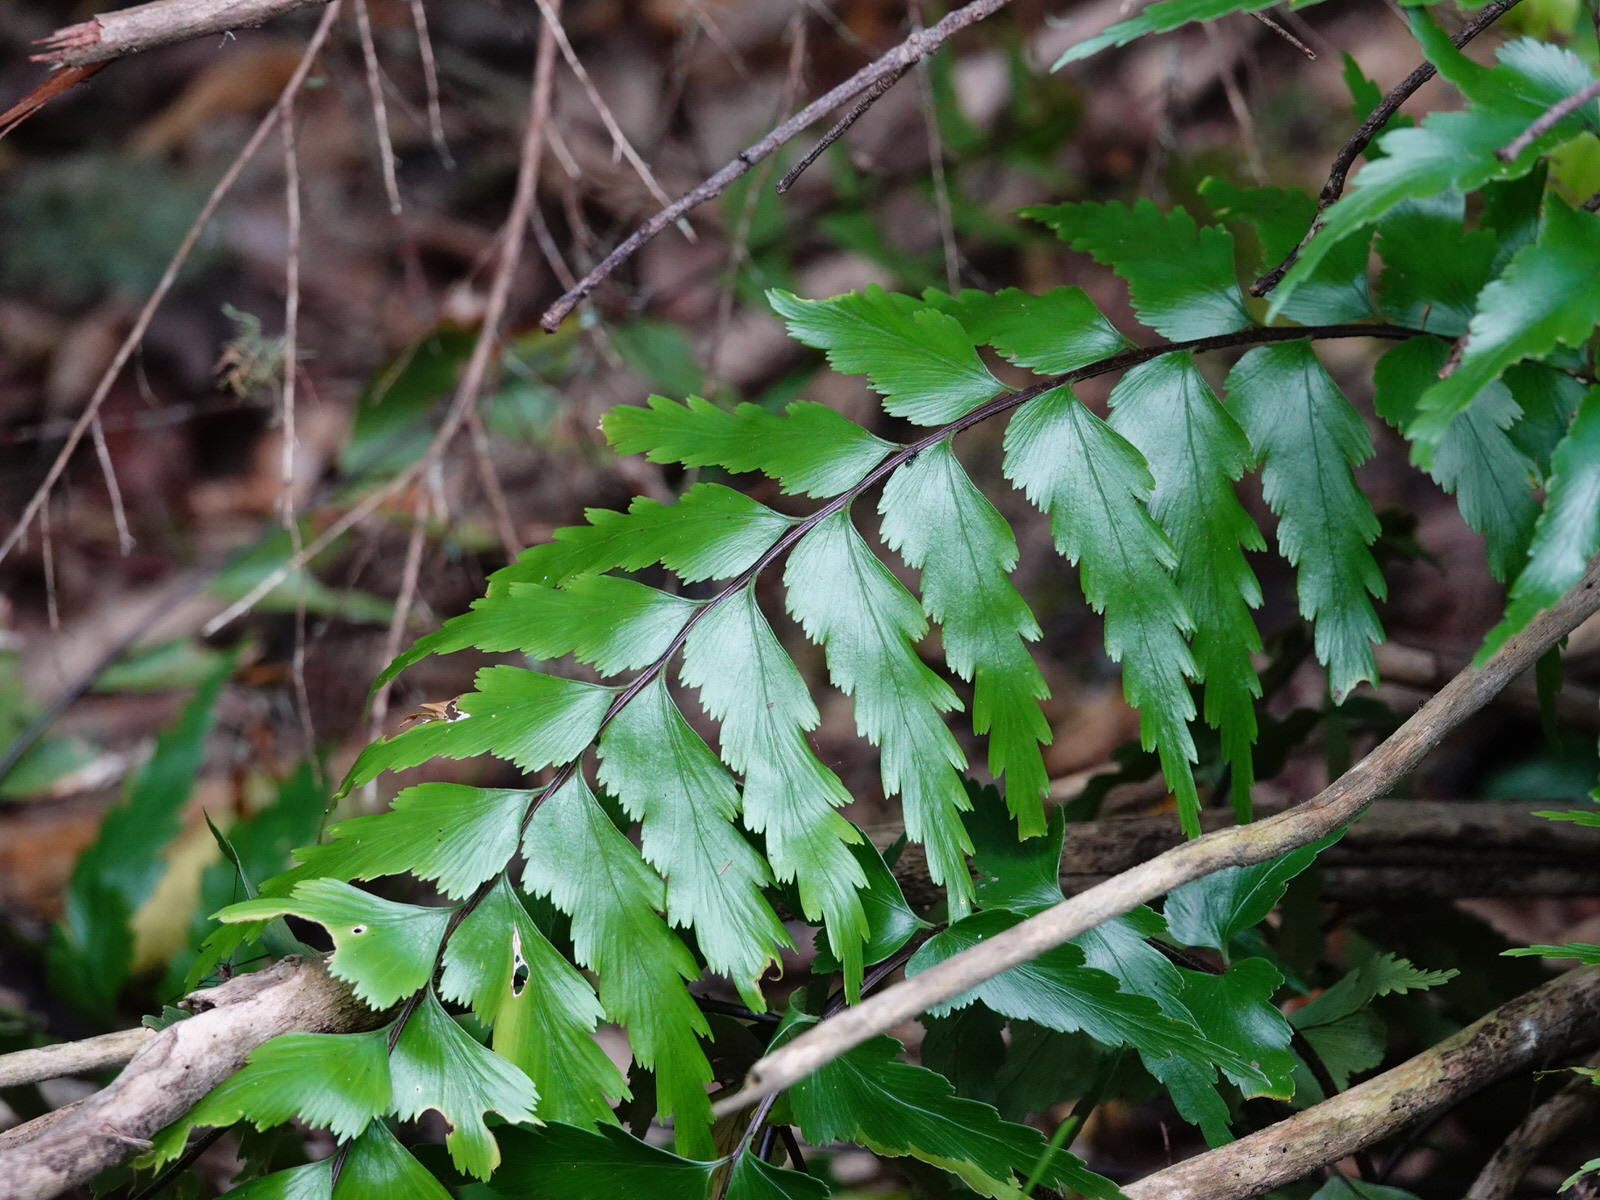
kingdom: Plantae
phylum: Tracheophyta
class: Polypodiopsida
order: Polypodiales
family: Aspleniaceae
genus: Asplenium
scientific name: Asplenium polyodon
